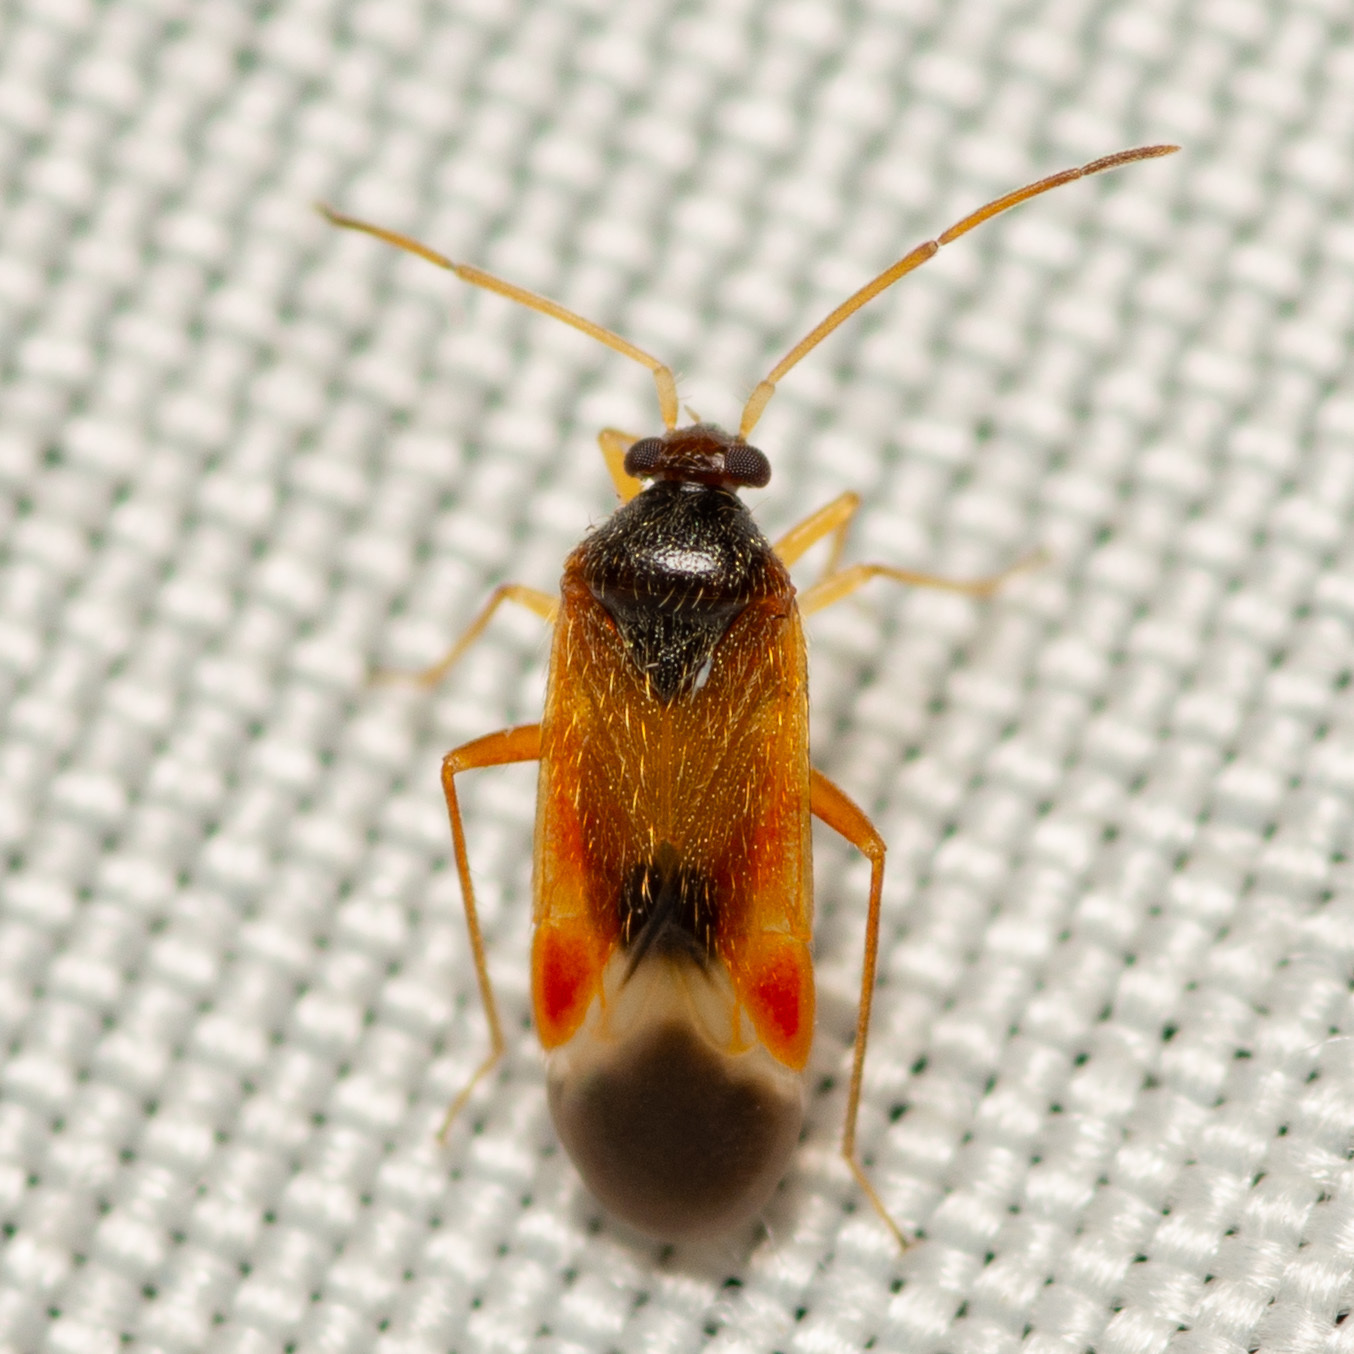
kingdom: Animalia
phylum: Arthropoda
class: Insecta
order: Hemiptera
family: Miridae
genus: Ceratocapsus
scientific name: Ceratocapsus apicalis
